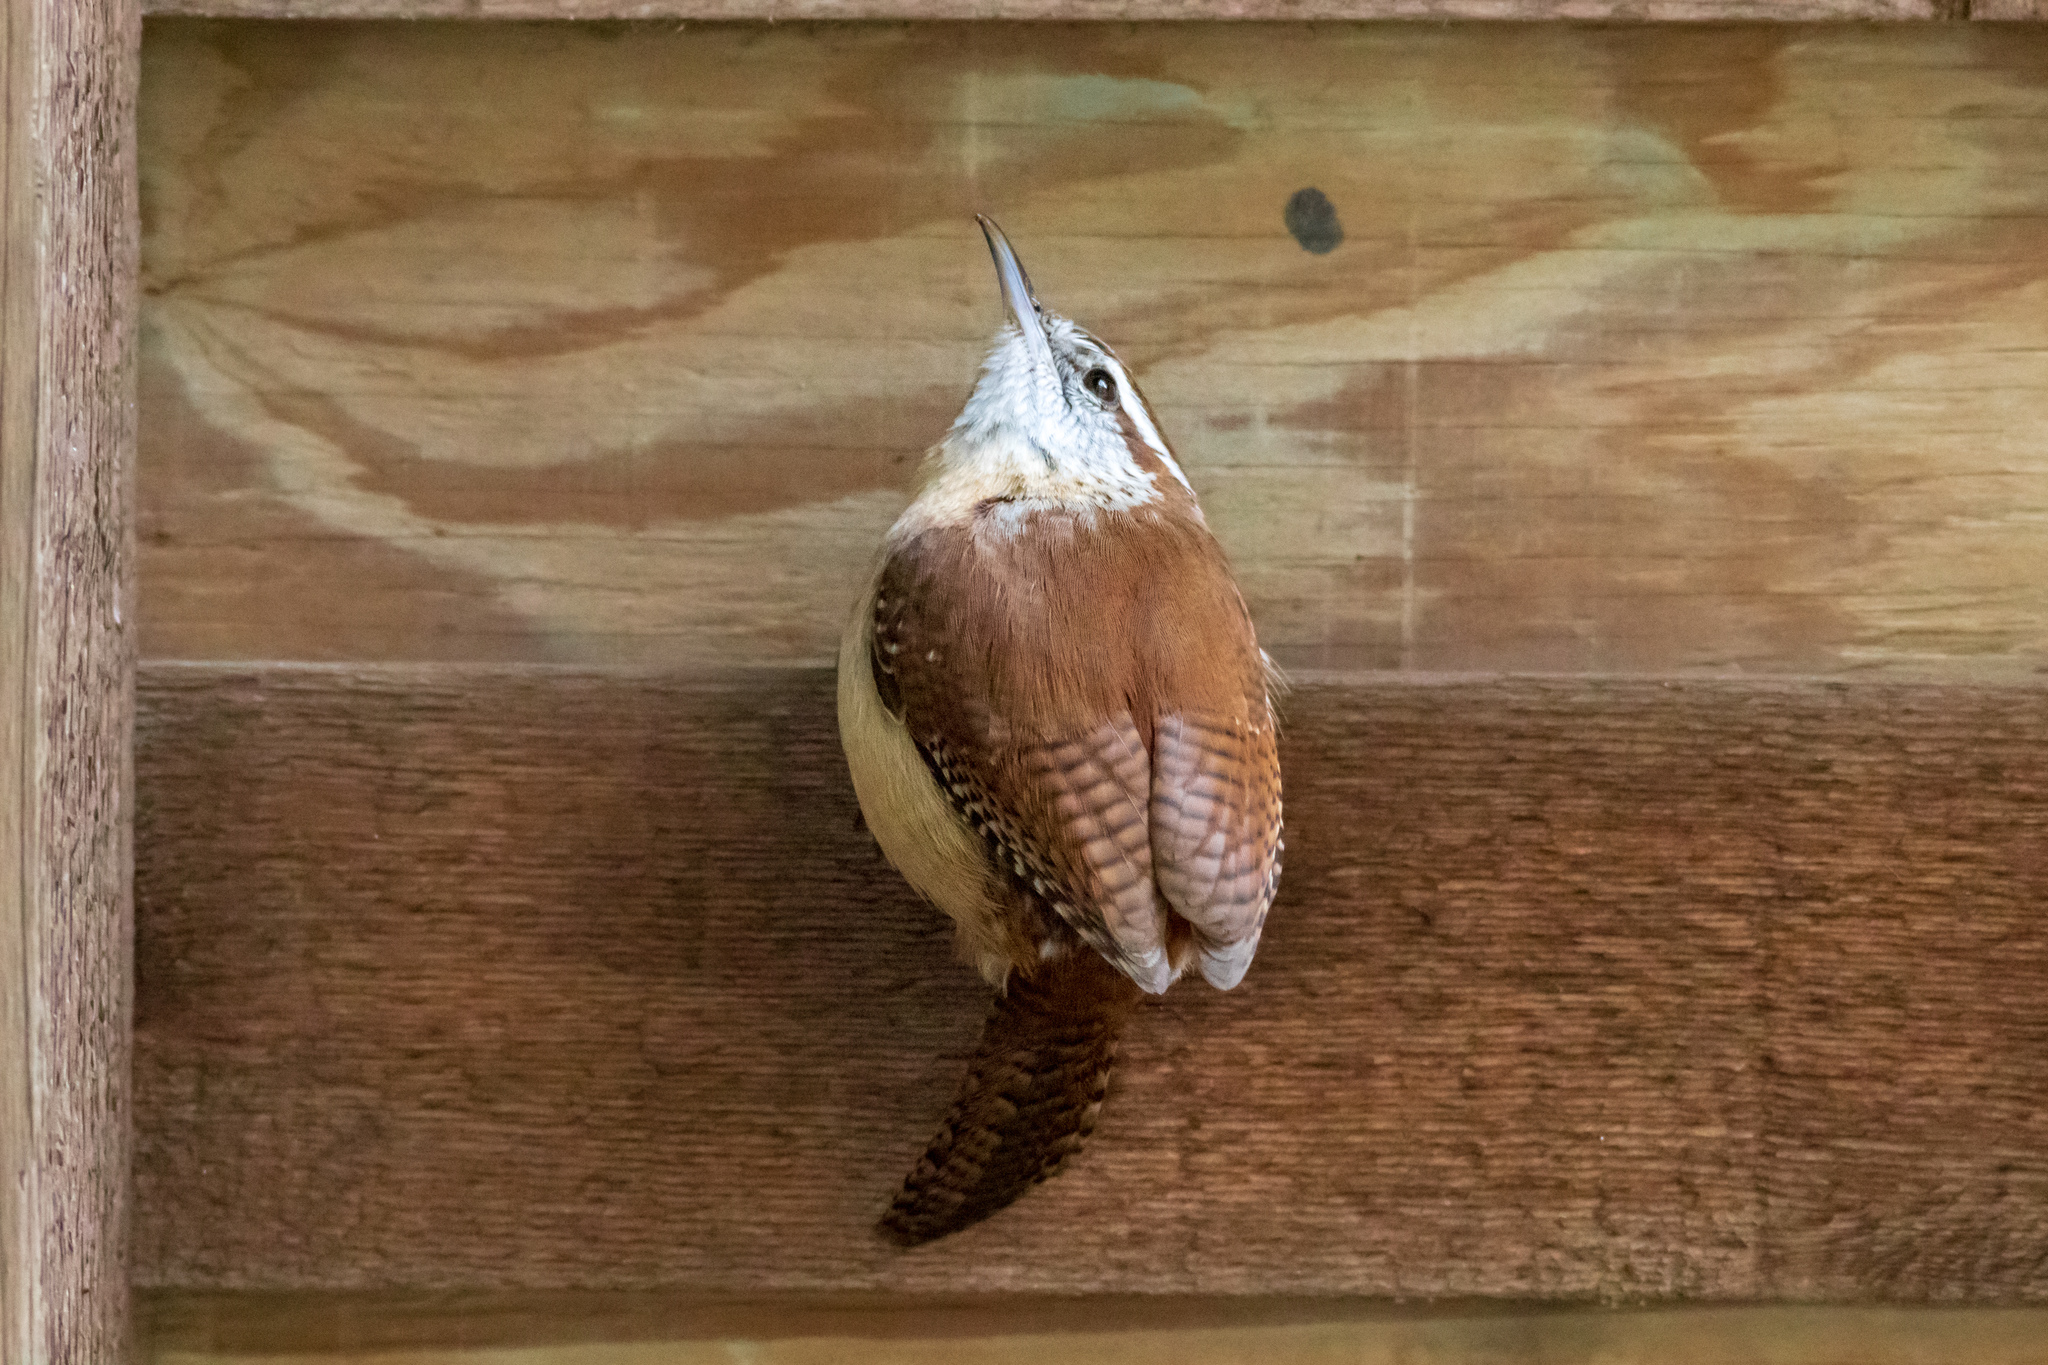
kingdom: Animalia
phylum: Chordata
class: Aves
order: Passeriformes
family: Troglodytidae
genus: Thryothorus
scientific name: Thryothorus ludovicianus
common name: Carolina wren
